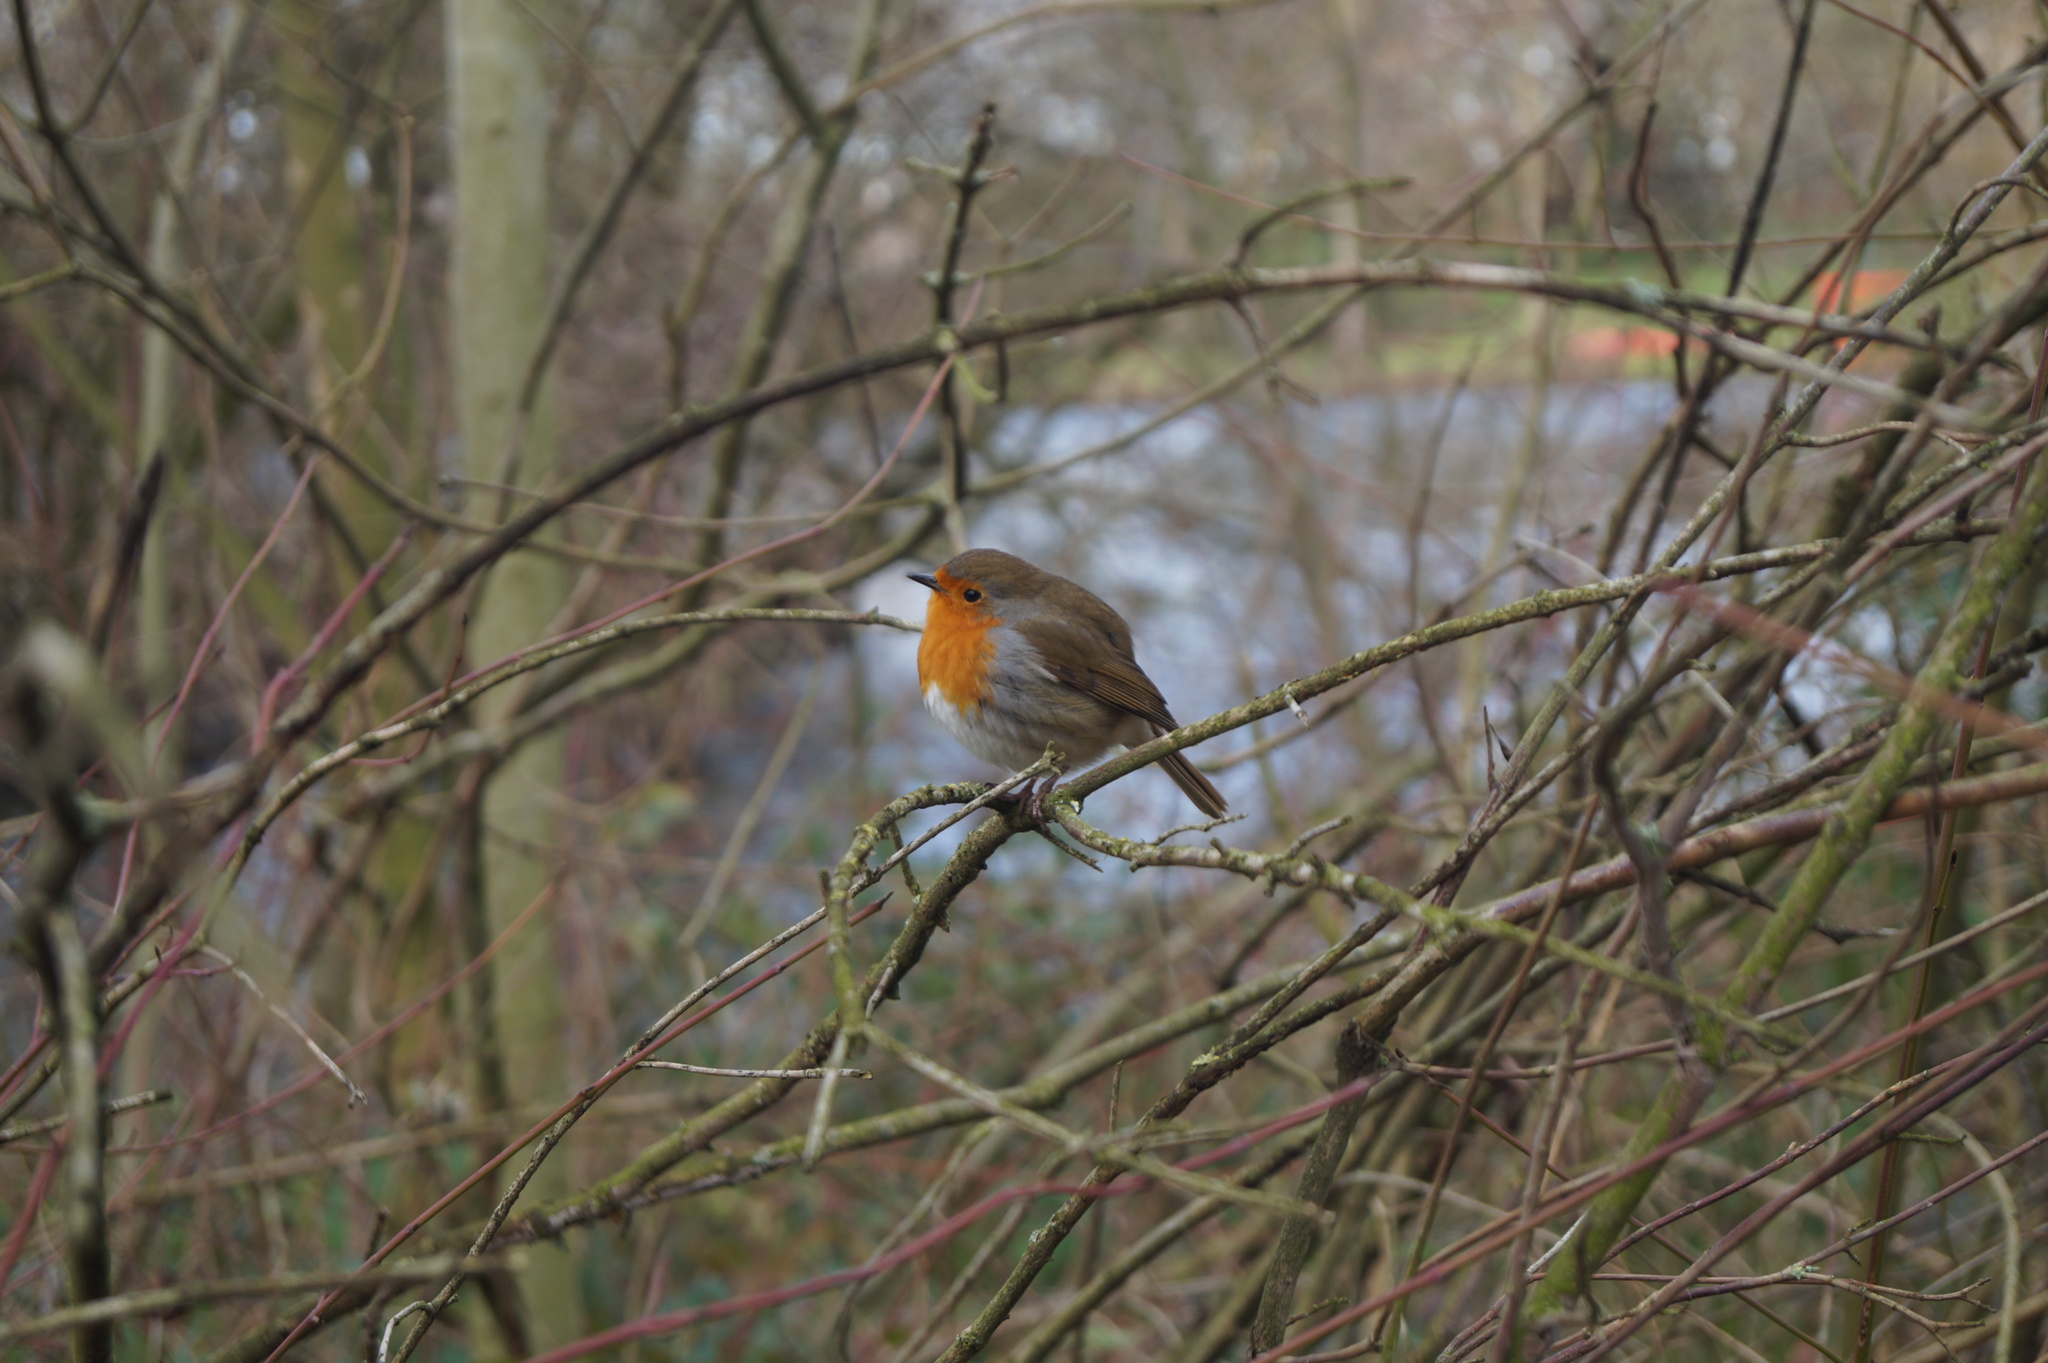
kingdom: Animalia
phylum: Chordata
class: Aves
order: Passeriformes
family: Muscicapidae
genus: Erithacus
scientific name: Erithacus rubecula
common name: European robin
